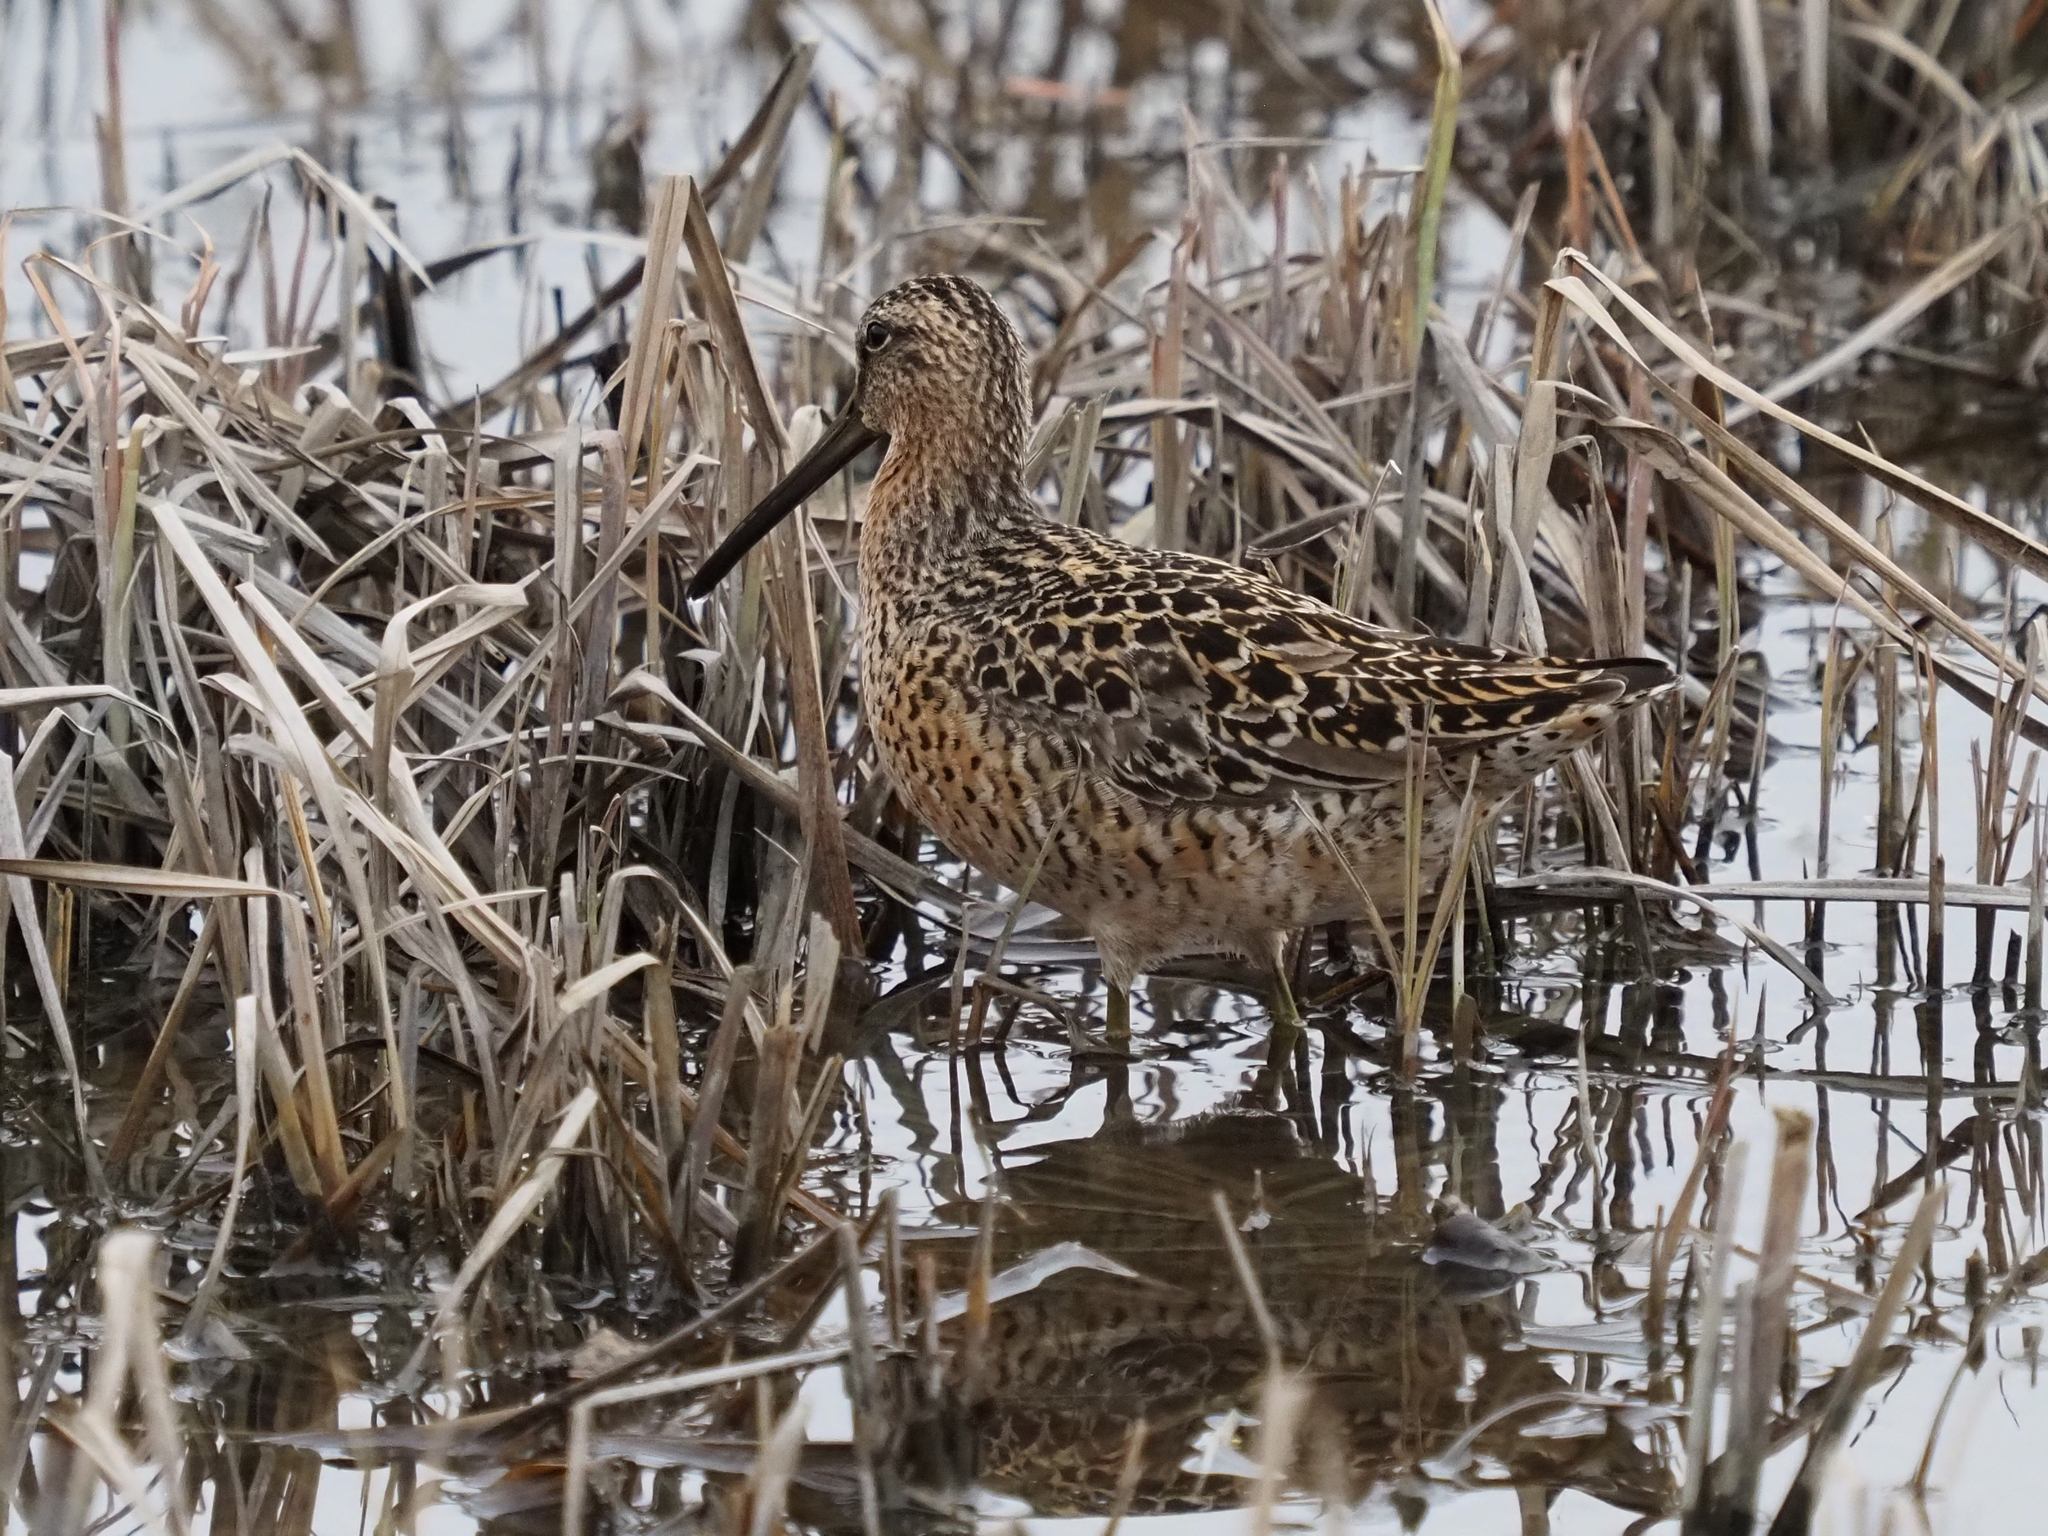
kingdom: Animalia
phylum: Chordata
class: Aves
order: Charadriiformes
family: Scolopacidae
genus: Limnodromus
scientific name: Limnodromus griseus
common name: Short-billed dowitcher
